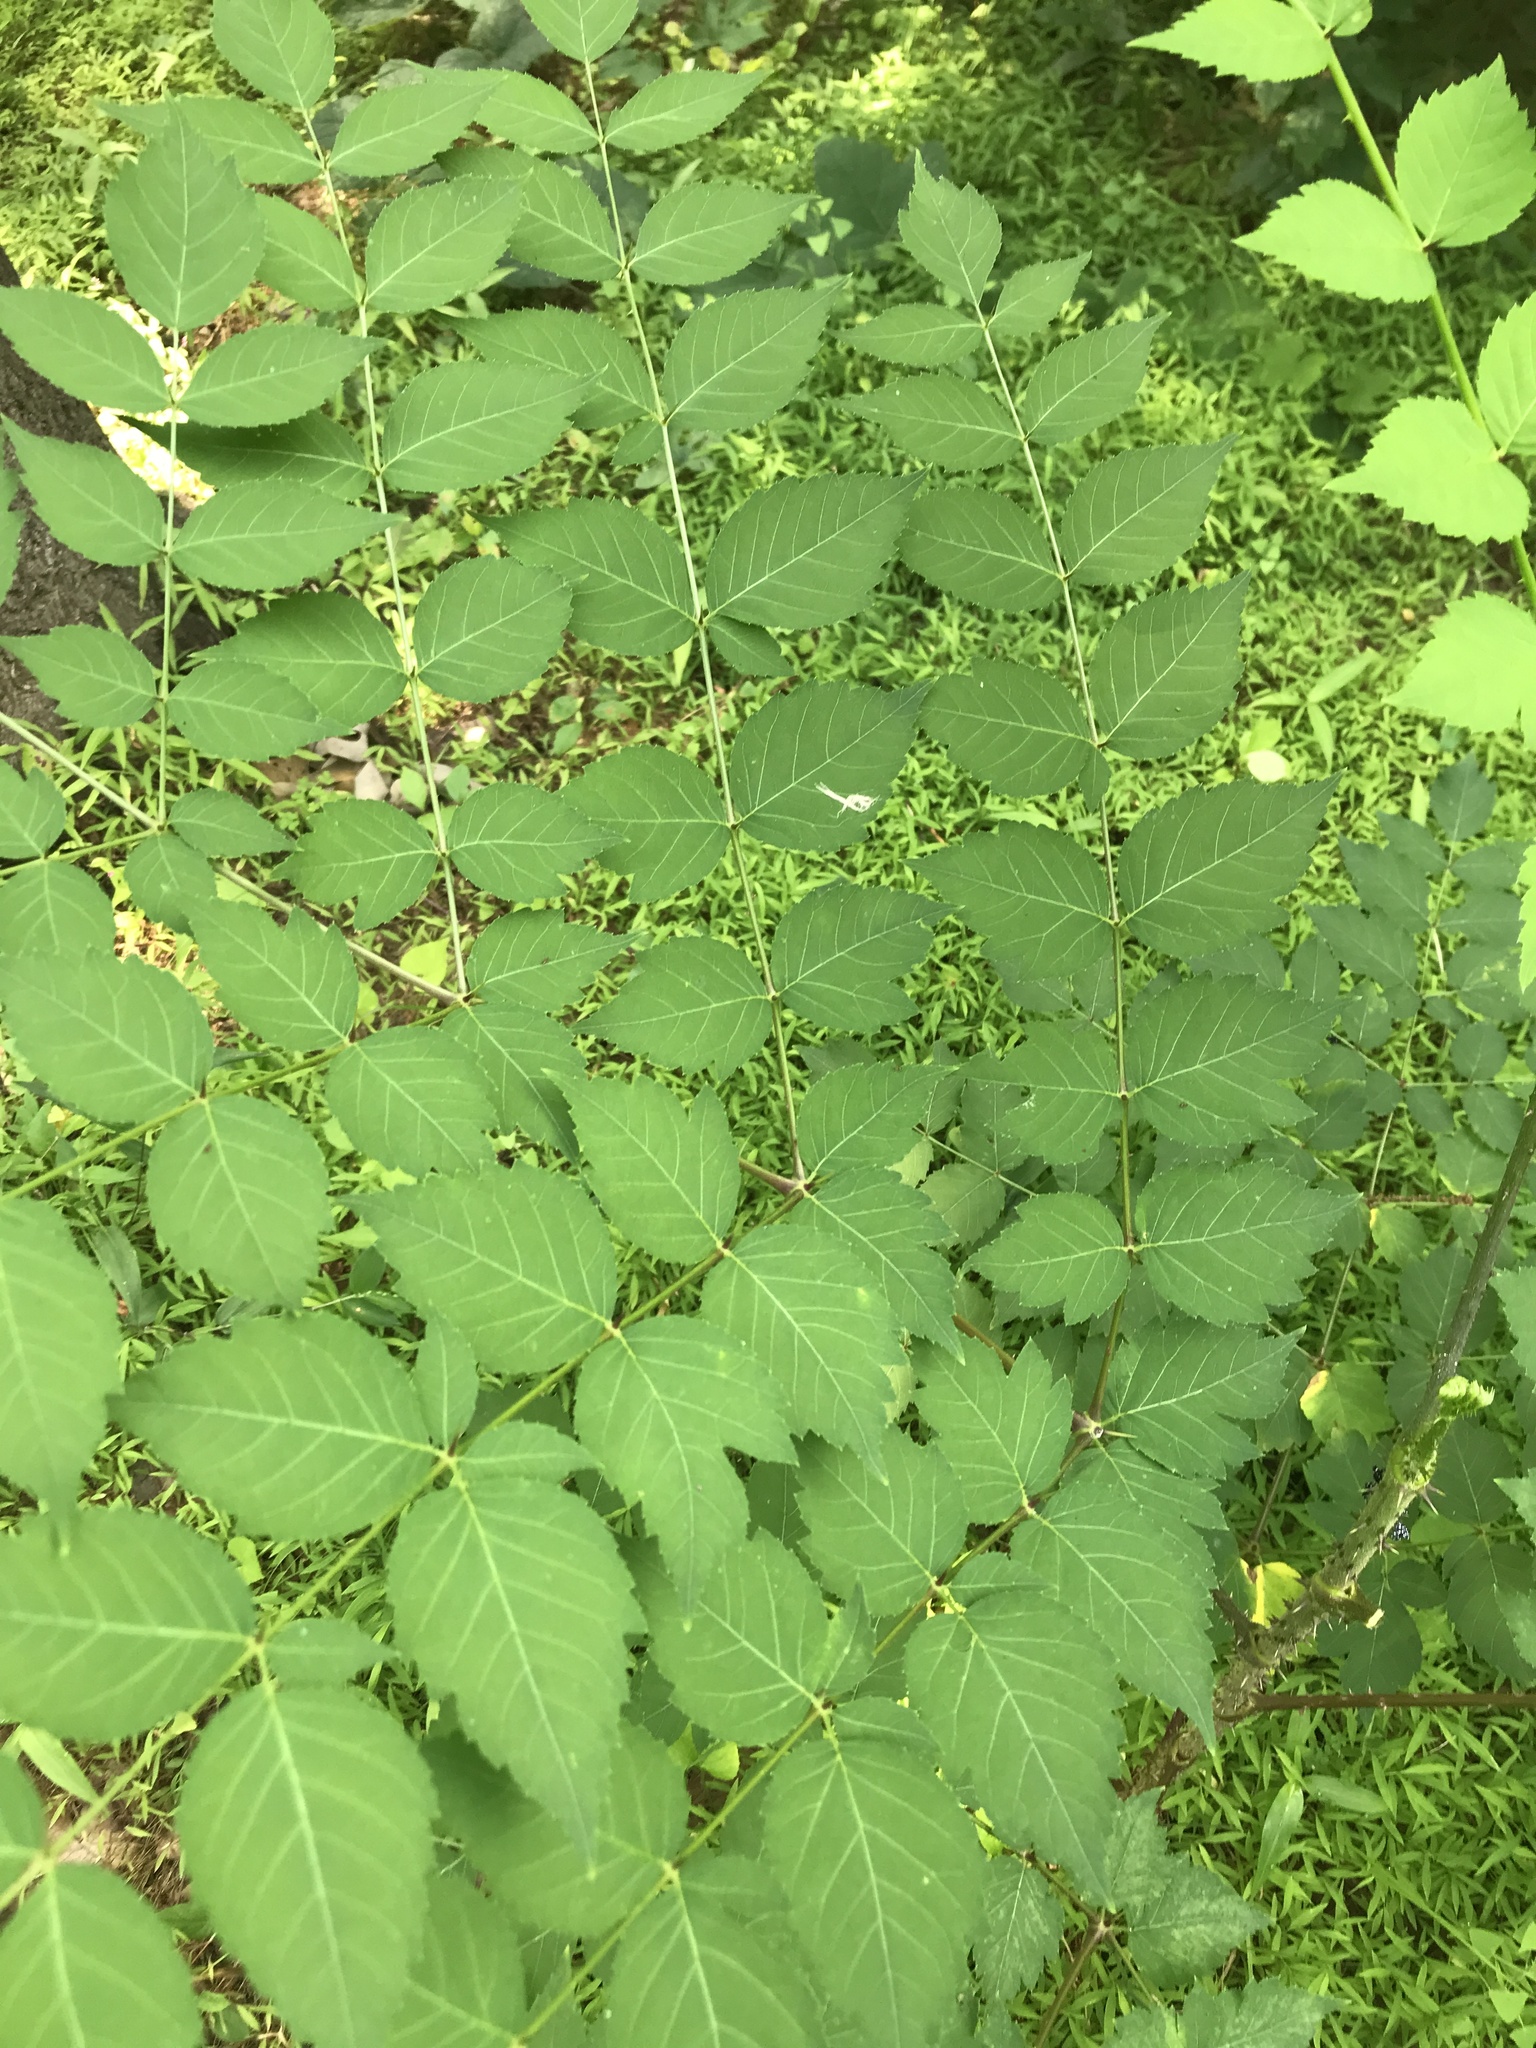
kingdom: Plantae
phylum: Tracheophyta
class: Magnoliopsida
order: Apiales
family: Araliaceae
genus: Aralia
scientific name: Aralia elata
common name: Japanese angelica-tree
